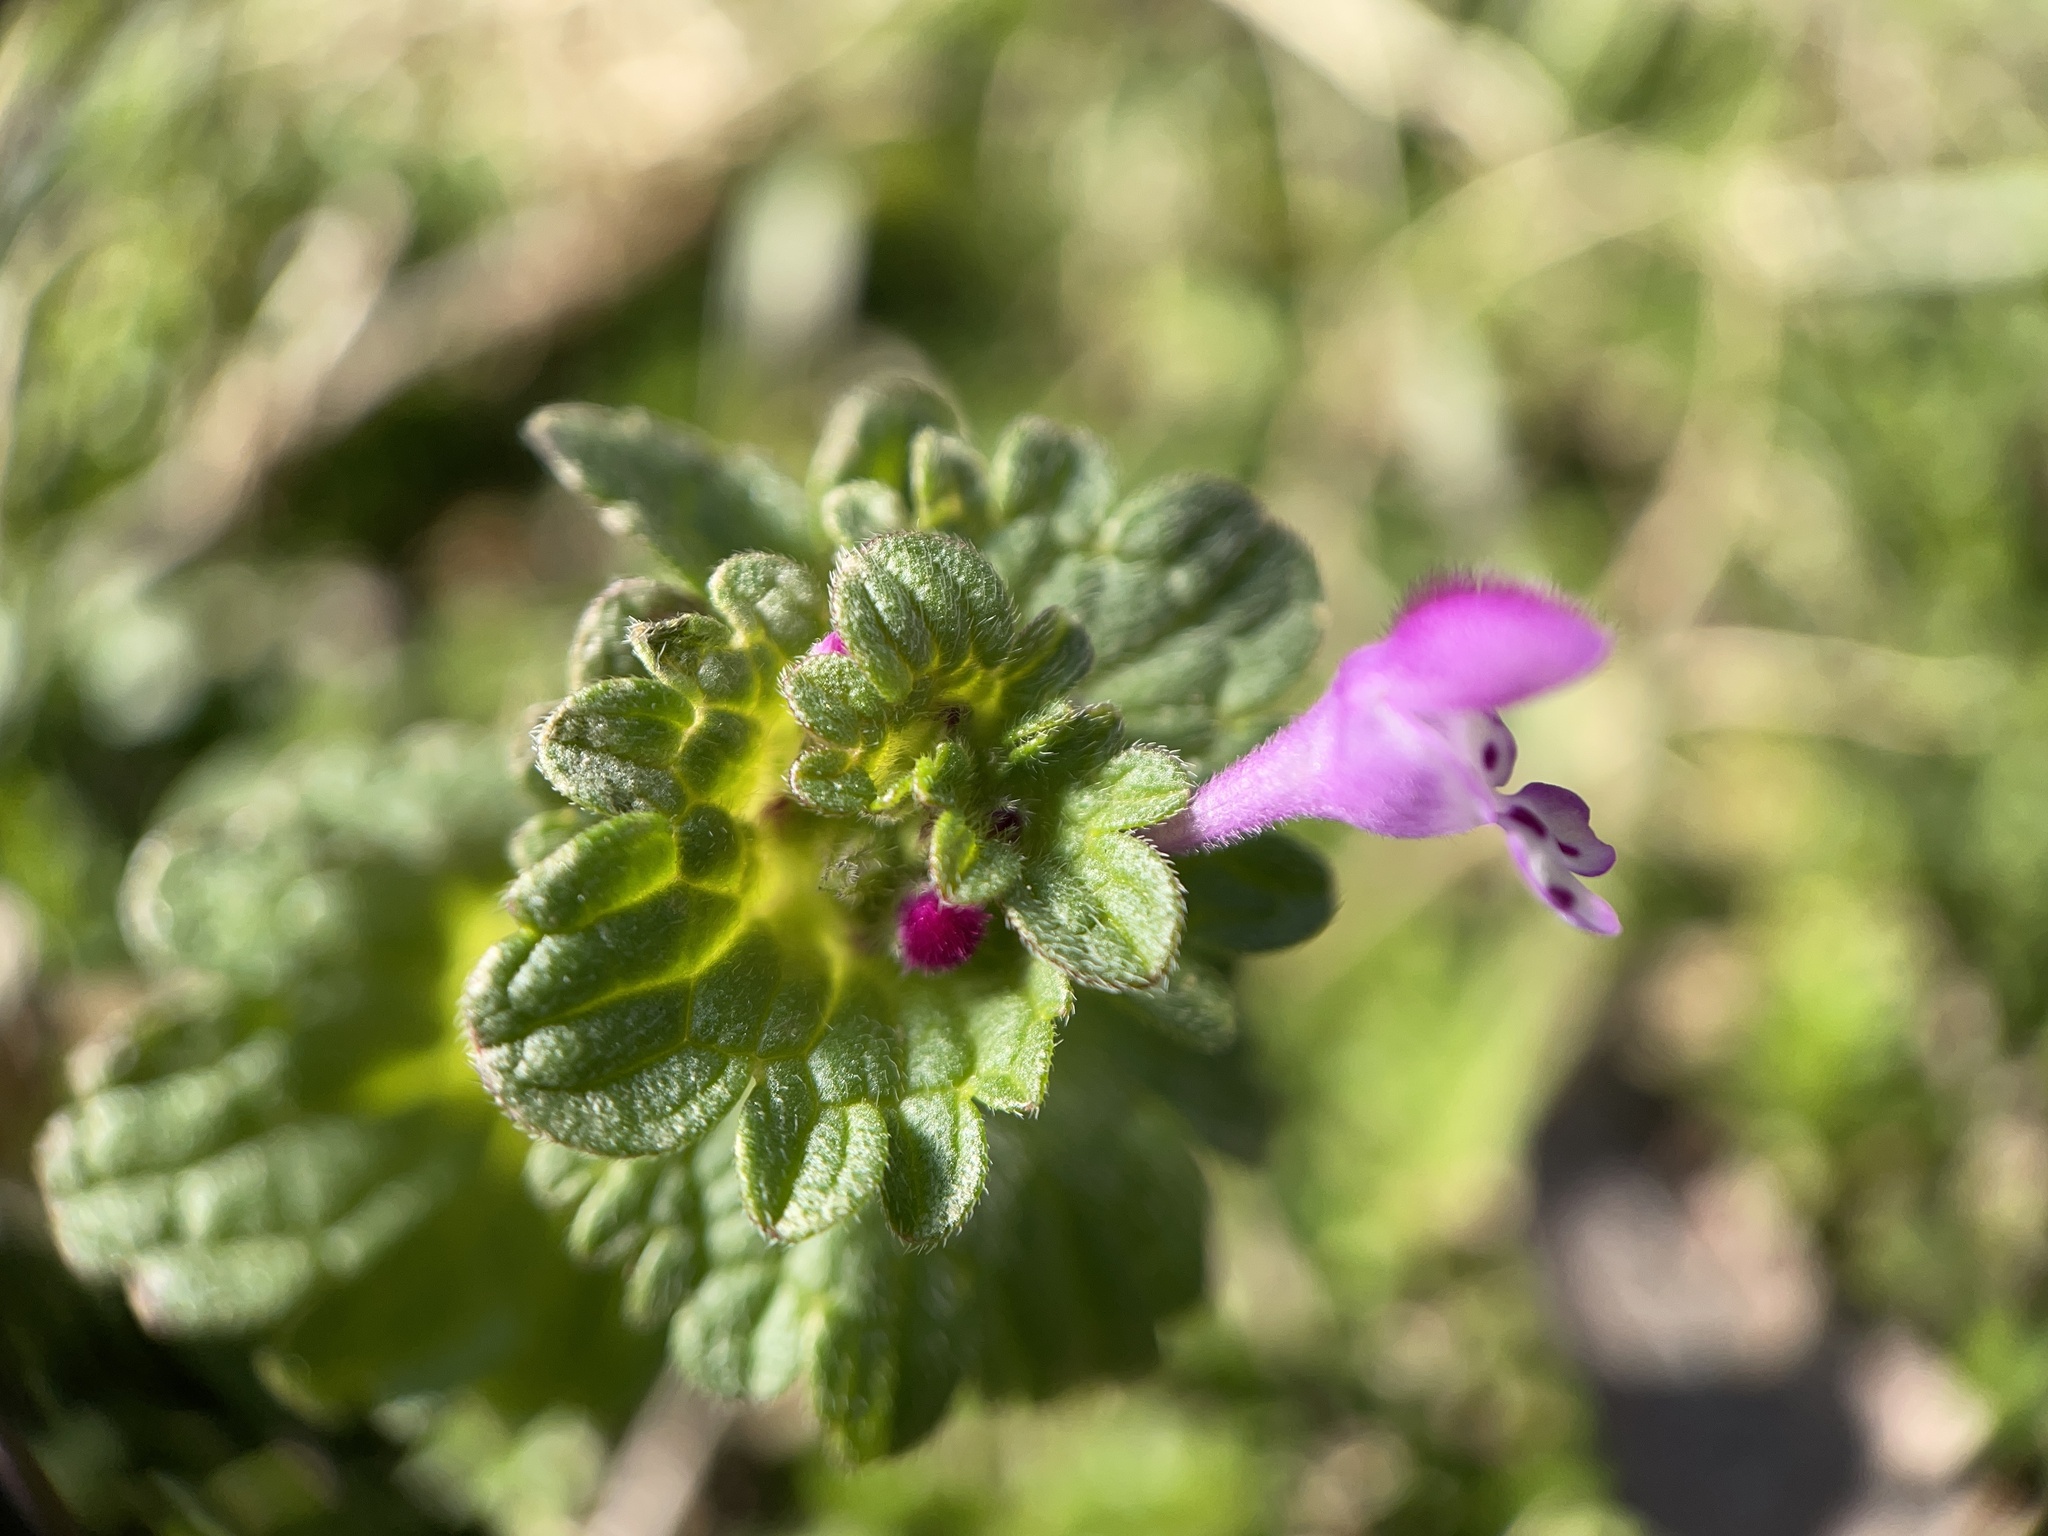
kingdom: Plantae
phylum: Tracheophyta
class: Magnoliopsida
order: Lamiales
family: Lamiaceae
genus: Lamium
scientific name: Lamium amplexicaule
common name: Henbit dead-nettle
